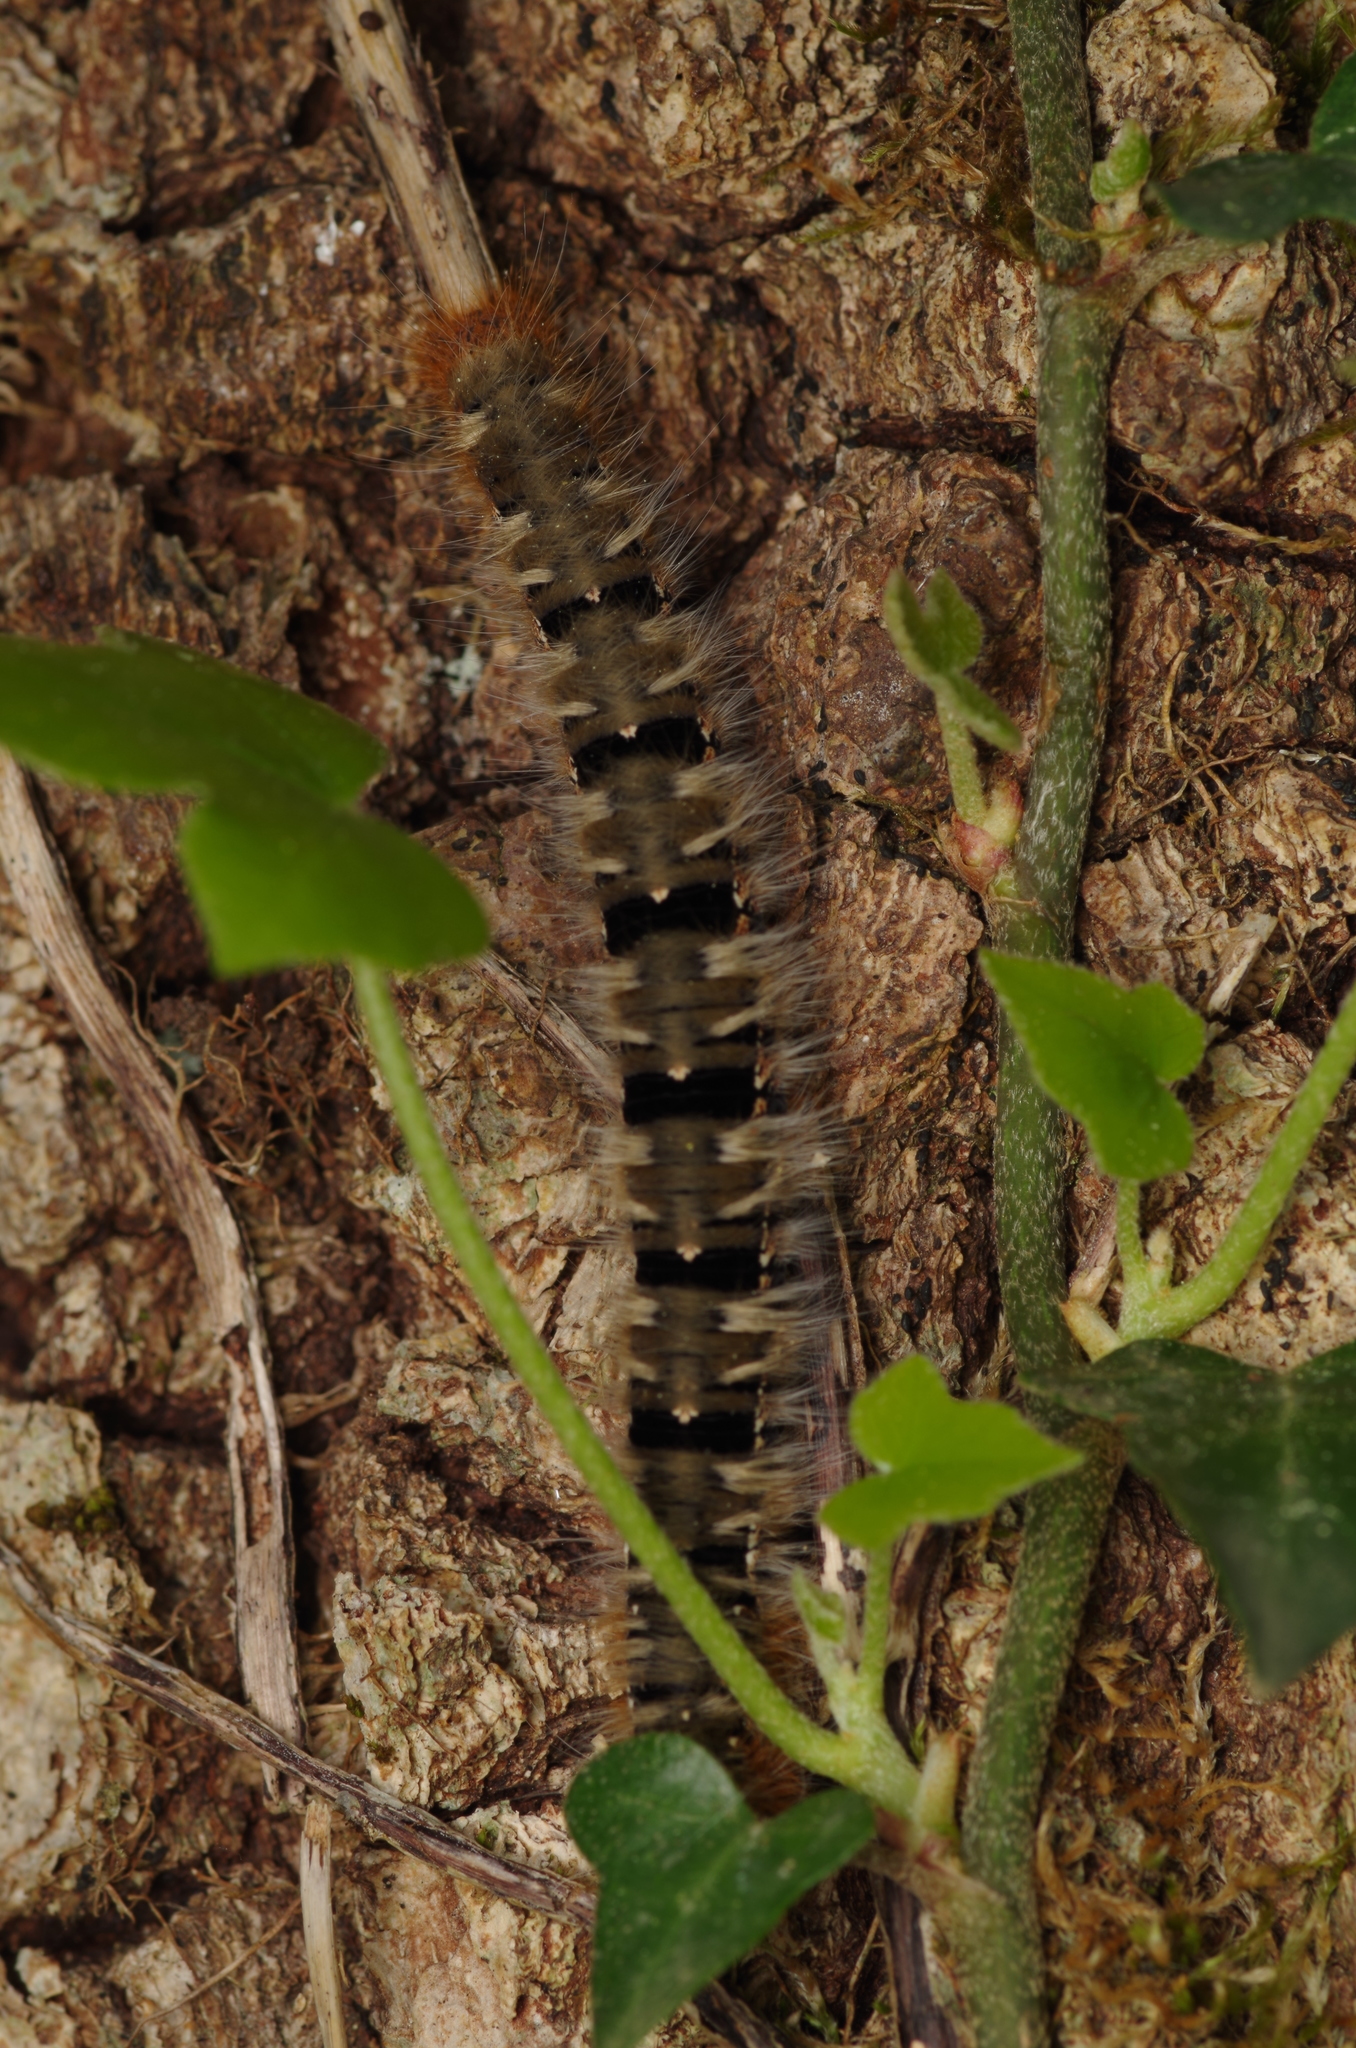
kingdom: Animalia
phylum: Arthropoda
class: Insecta
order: Lepidoptera
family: Lasiocampidae
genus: Lasiocampa
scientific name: Lasiocampa quercus
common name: Oak eggar
